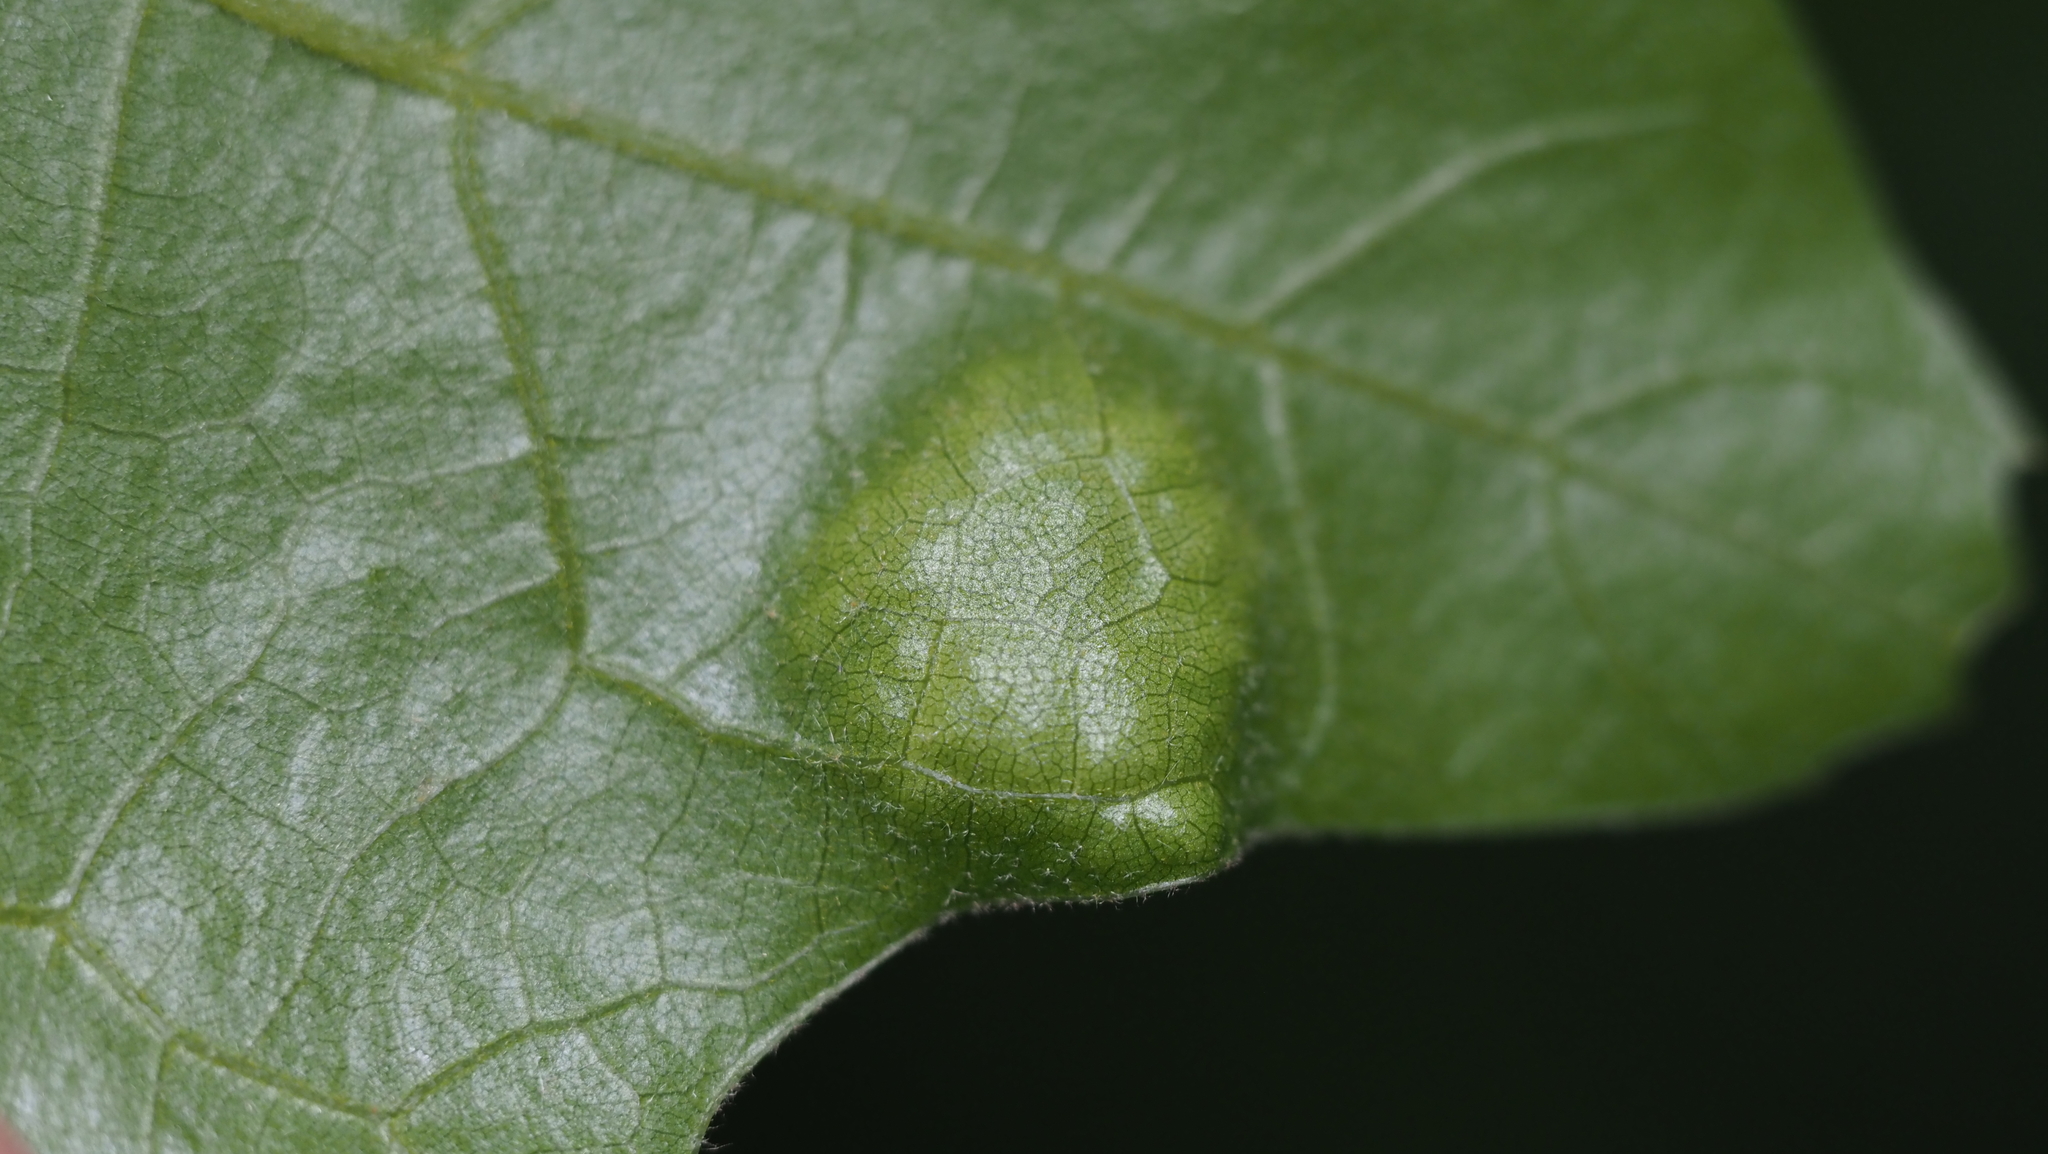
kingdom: Fungi
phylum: Ascomycota
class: Taphrinomycetes
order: Taphrinales
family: Taphrinaceae
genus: Taphrina
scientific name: Taphrina caerulescens
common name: Oak leaf blister
